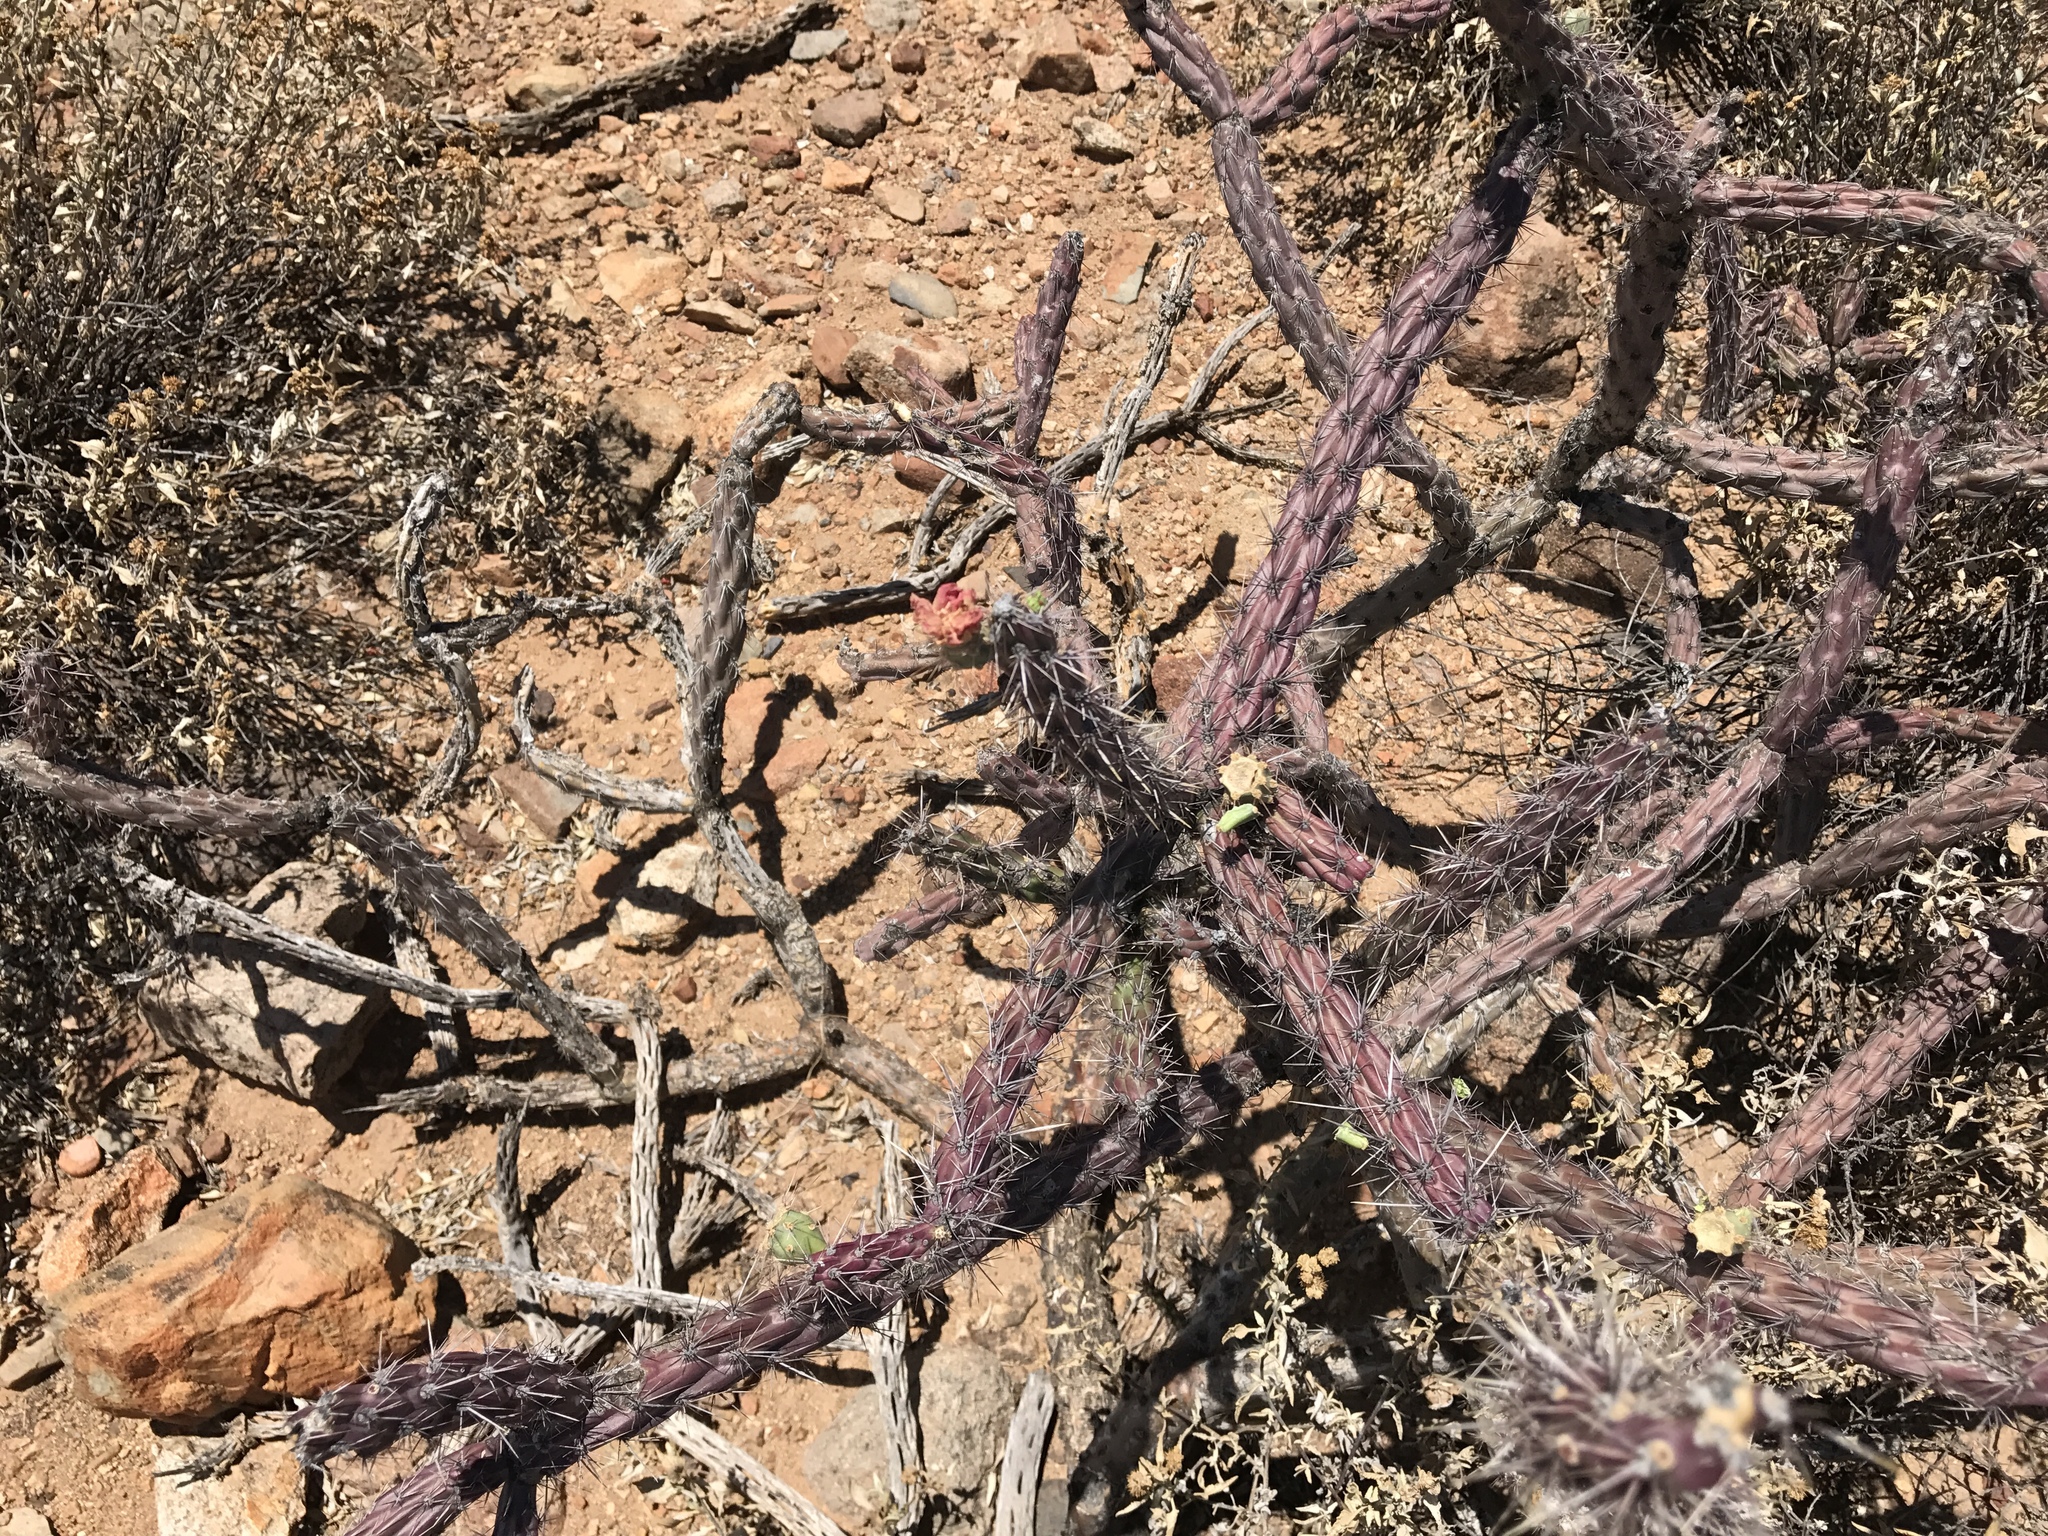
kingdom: Plantae
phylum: Tracheophyta
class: Magnoliopsida
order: Caryophyllales
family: Cactaceae
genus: Cylindropuntia
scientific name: Cylindropuntia thurberi
